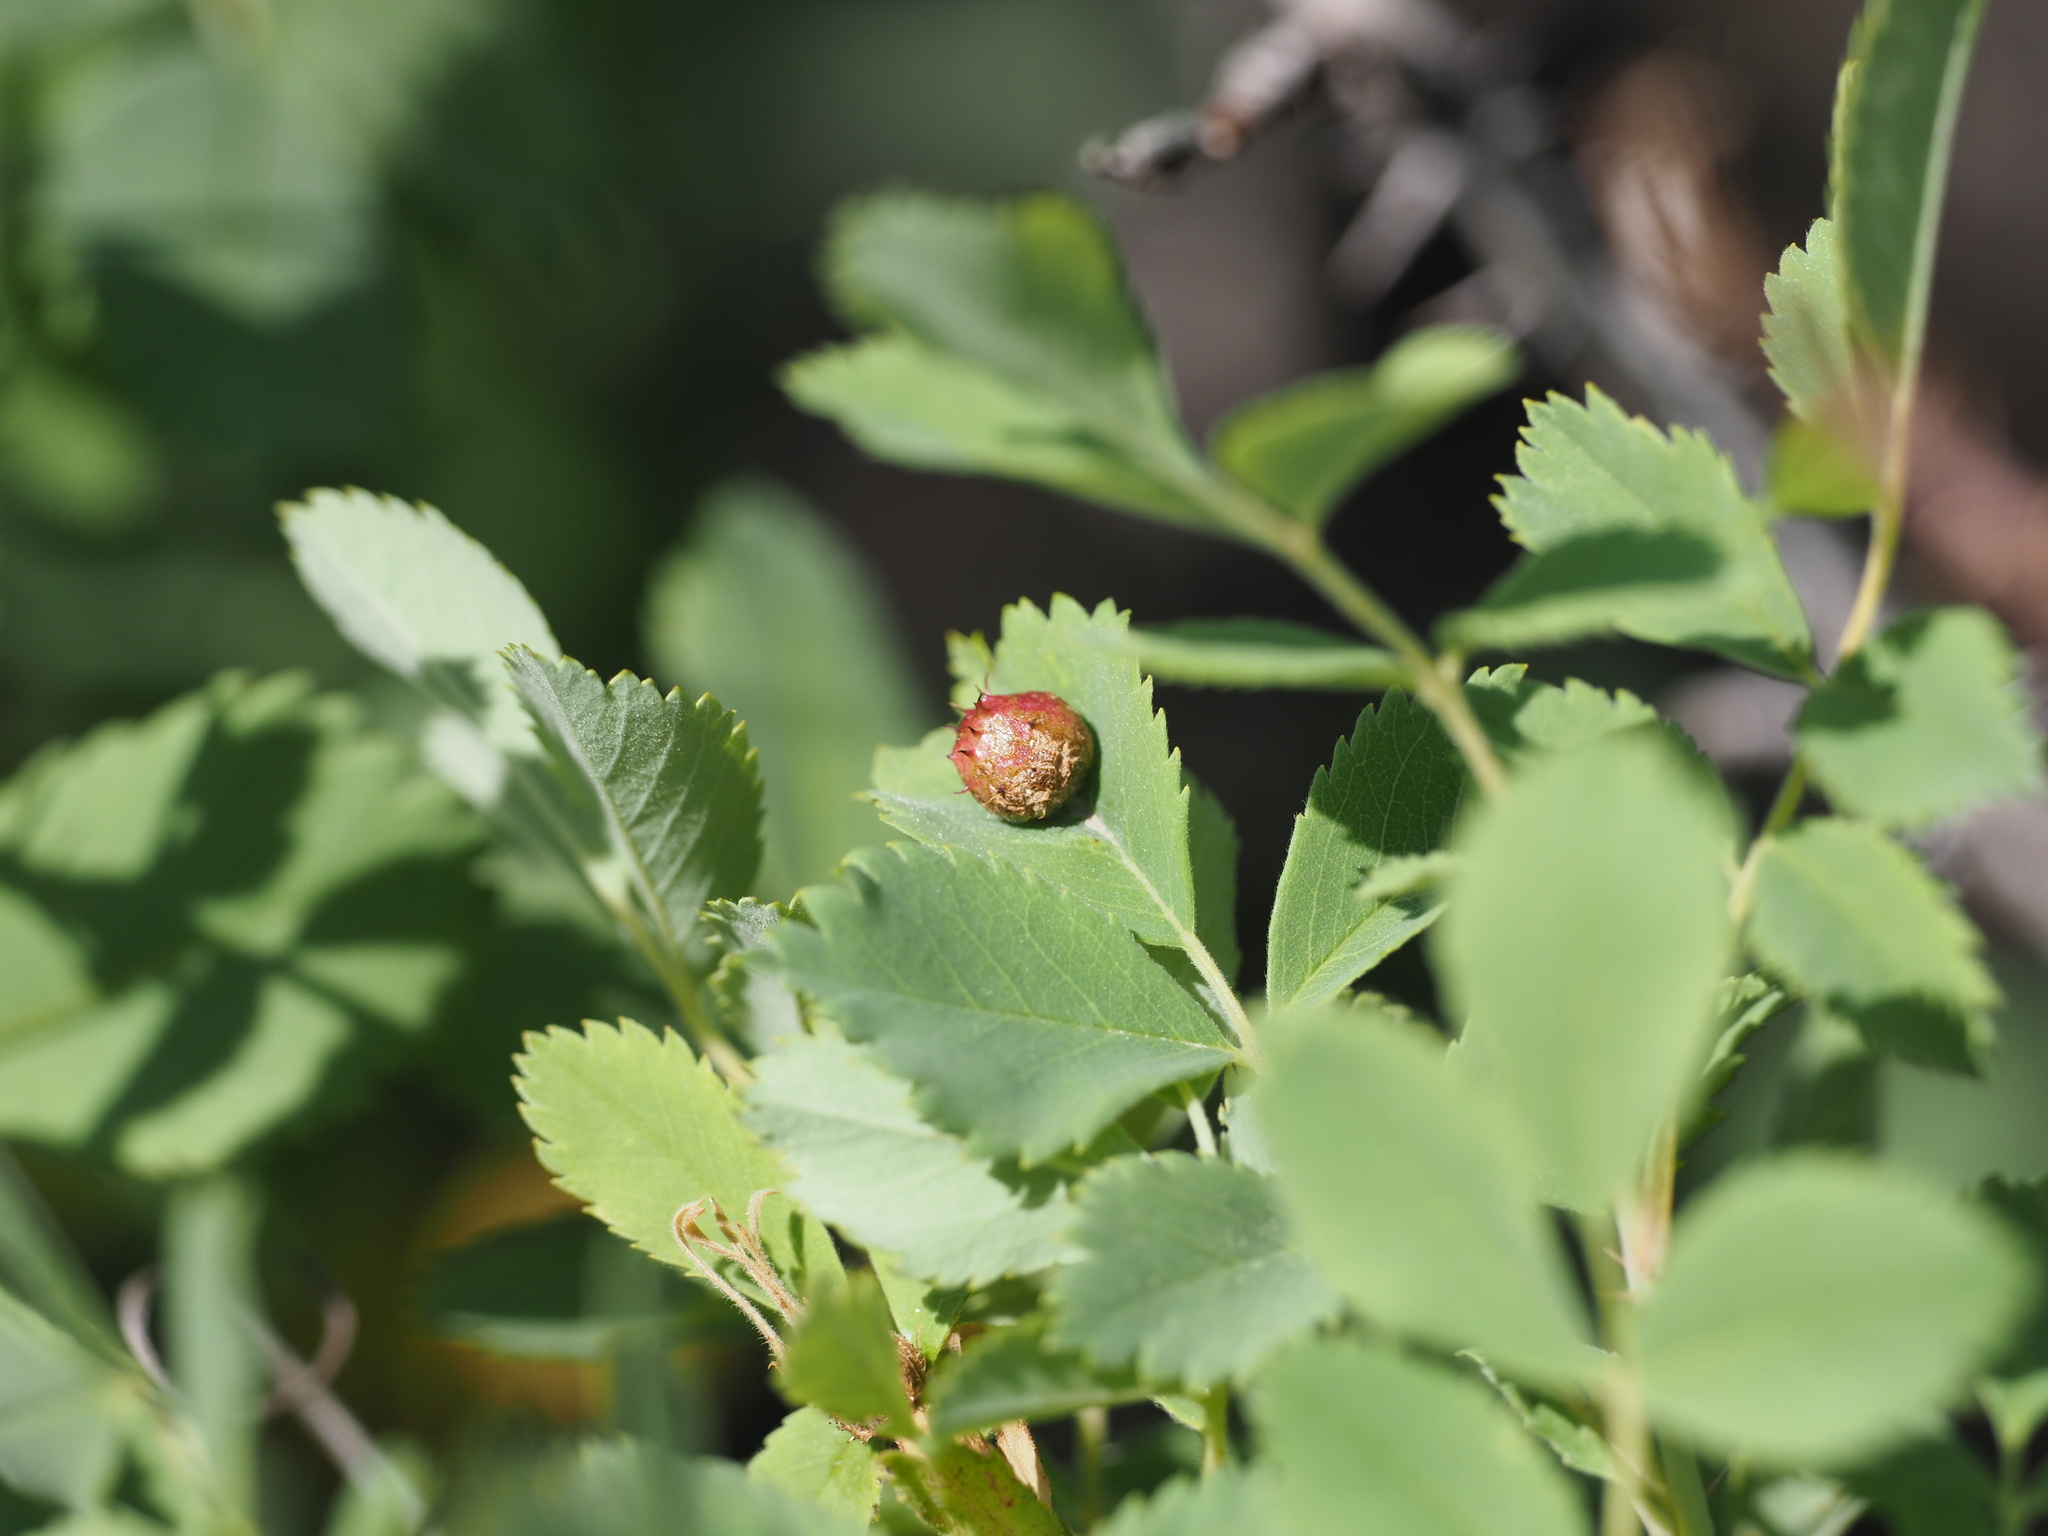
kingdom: Animalia
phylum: Arthropoda
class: Insecta
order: Hymenoptera
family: Cynipidae
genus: Diplolepis
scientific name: Diplolepis polita
